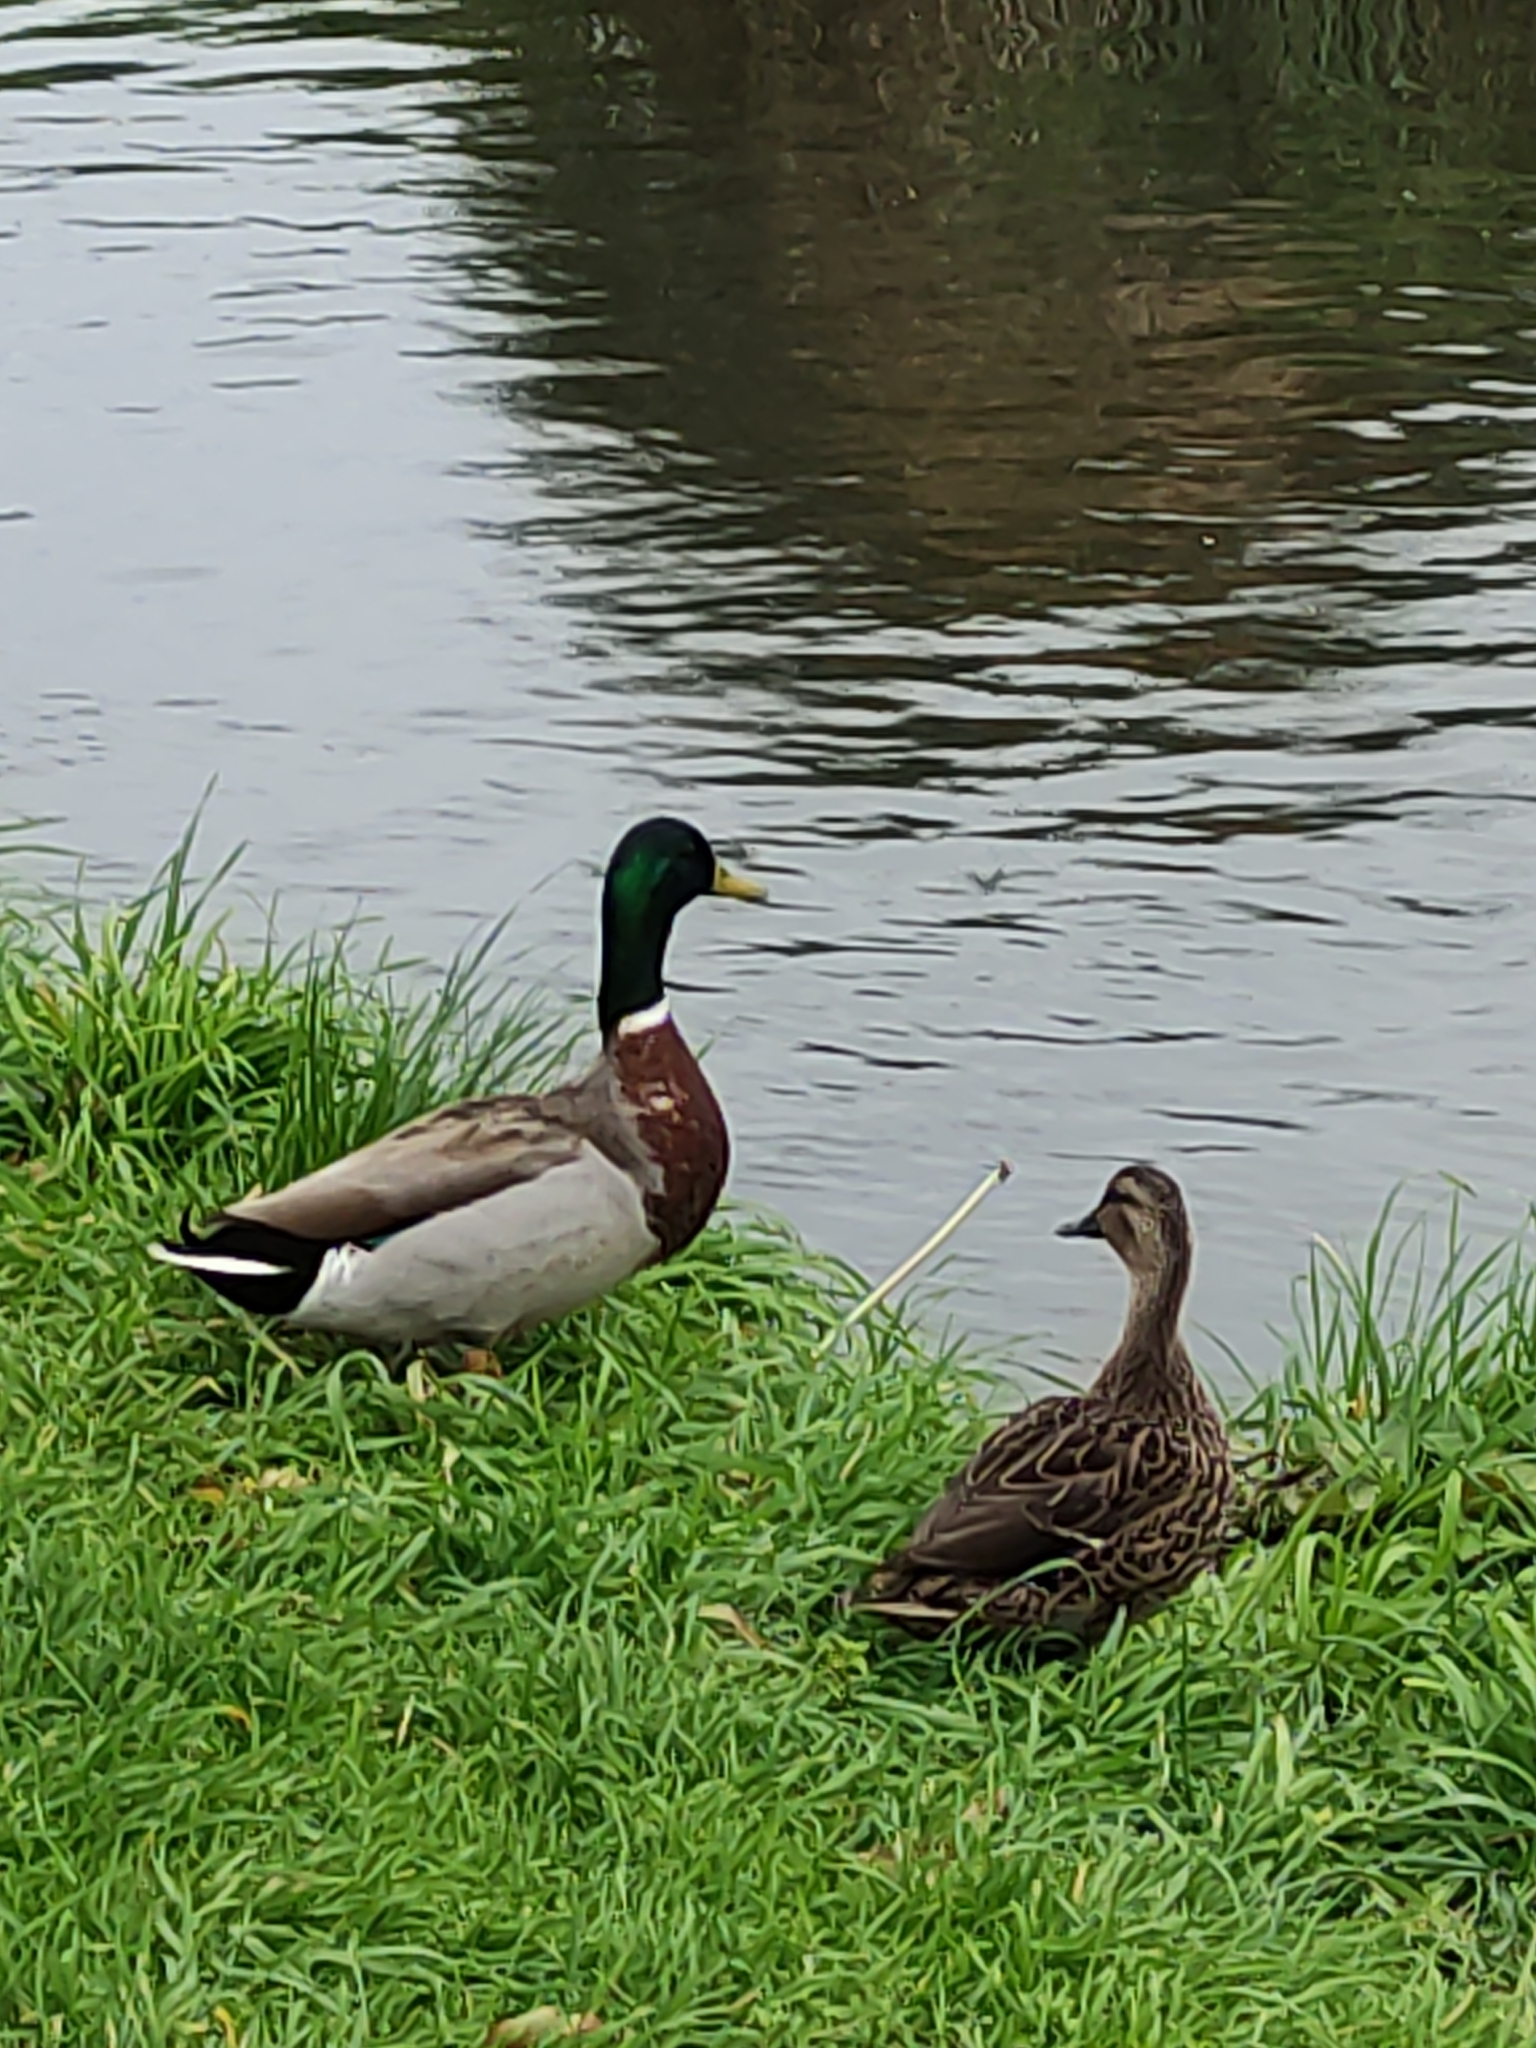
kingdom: Animalia
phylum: Chordata
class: Aves
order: Anseriformes
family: Anatidae
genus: Anas
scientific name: Anas platyrhynchos
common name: Mallard
